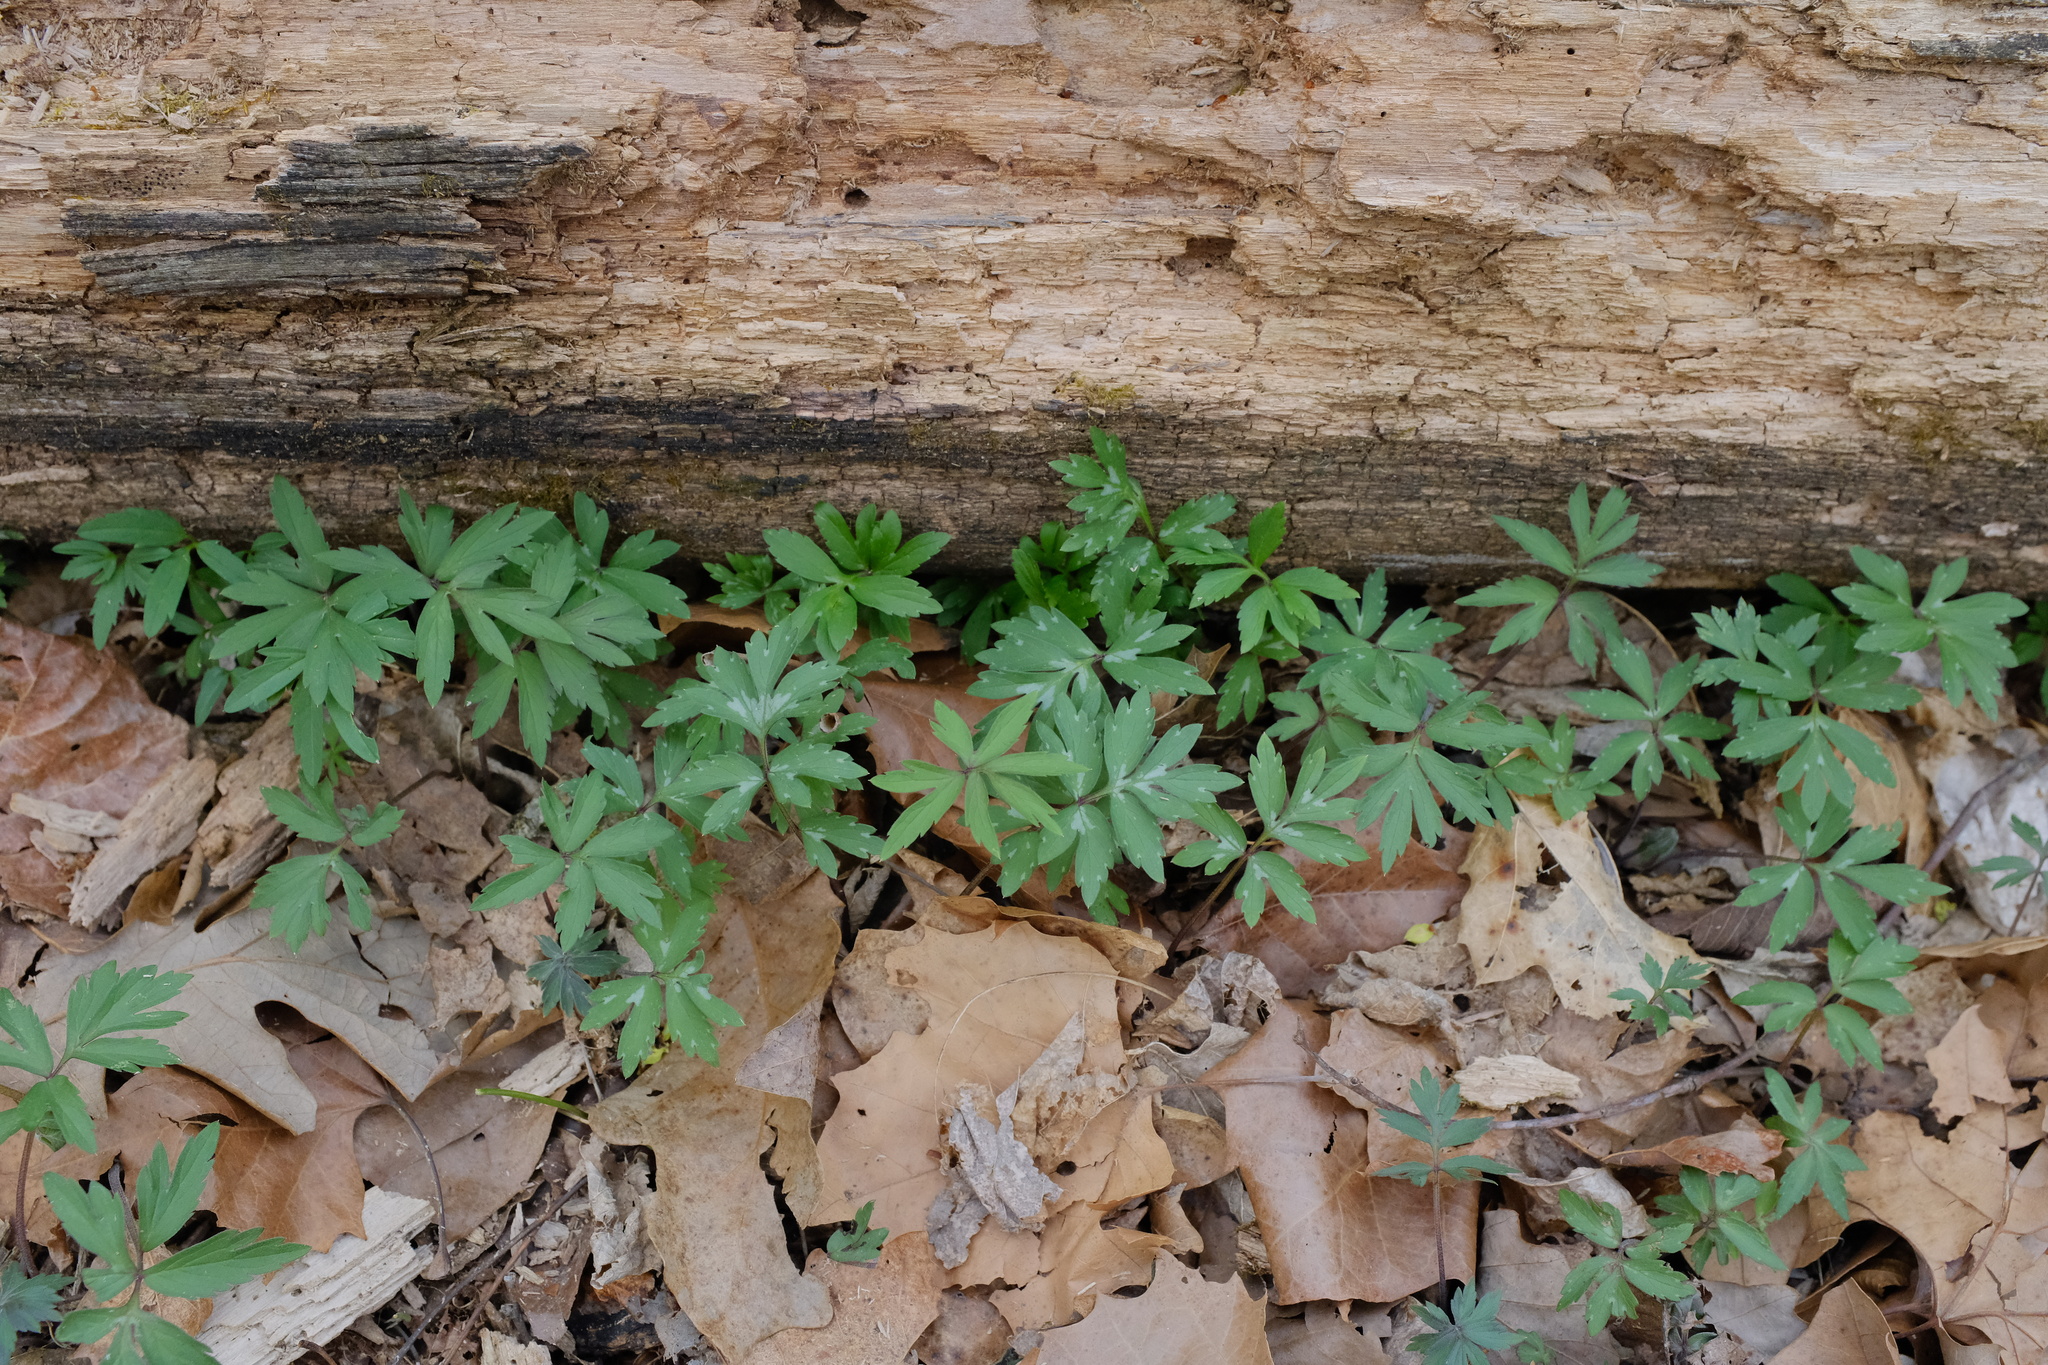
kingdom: Plantae
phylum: Tracheophyta
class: Magnoliopsida
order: Boraginales
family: Hydrophyllaceae
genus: Hydrophyllum
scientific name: Hydrophyllum virginianum
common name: Virginia waterleaf
